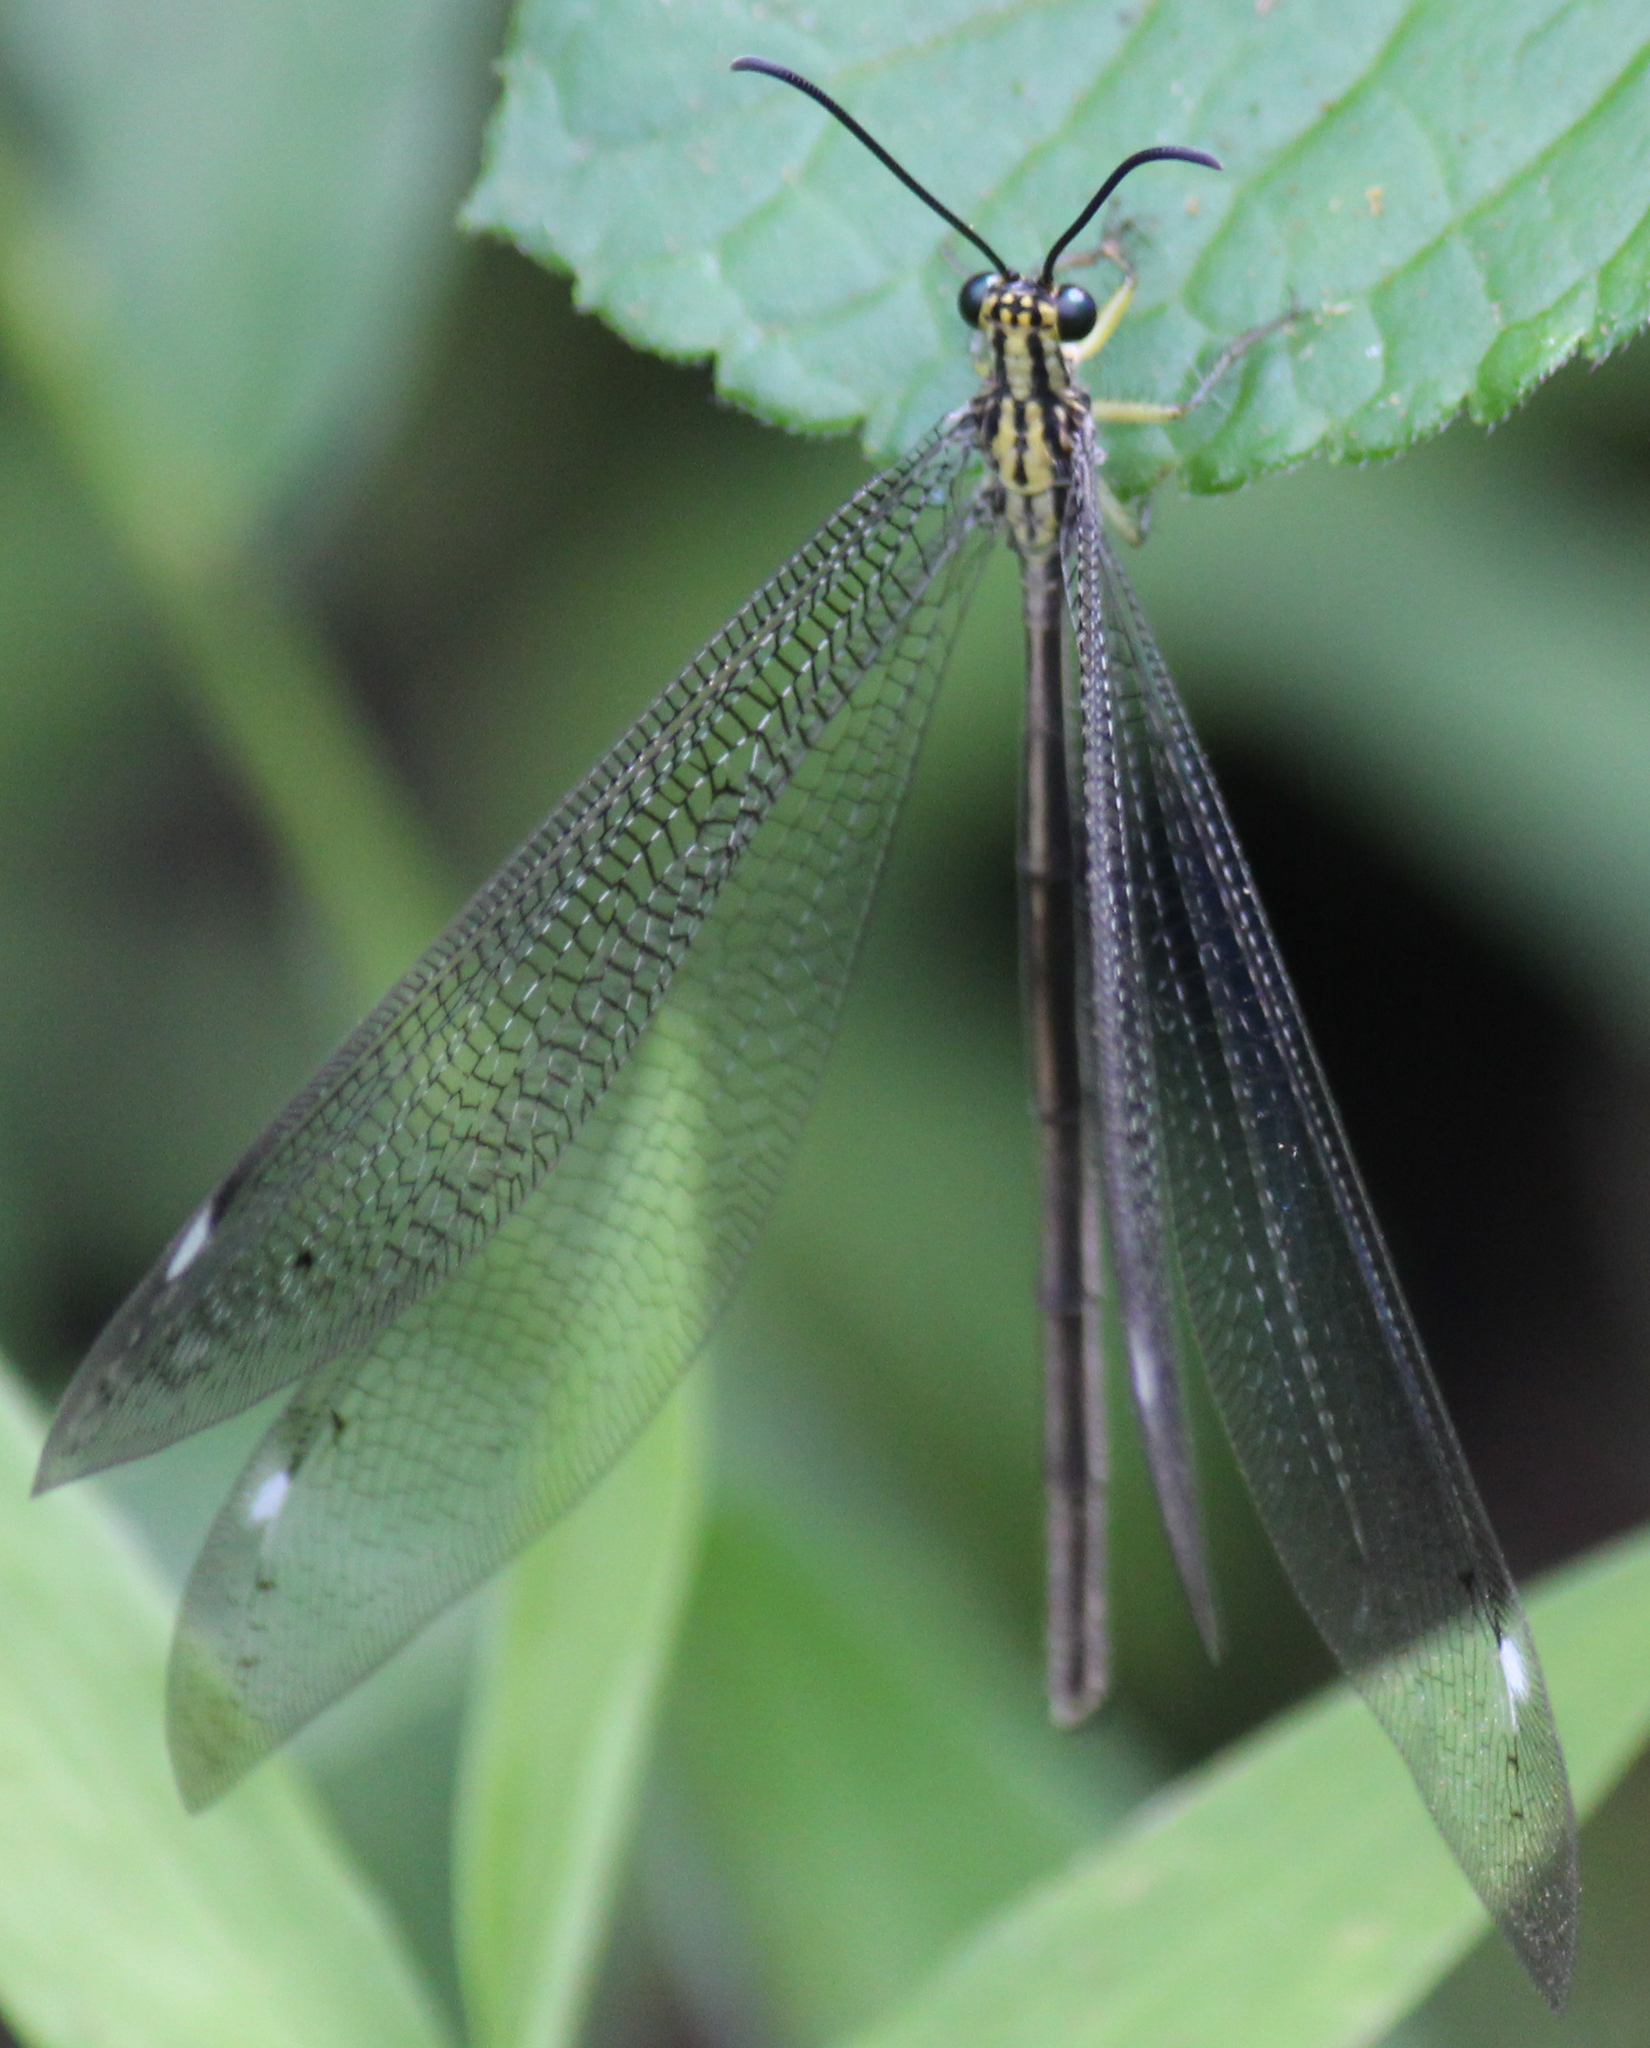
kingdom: Animalia
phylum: Arthropoda
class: Insecta
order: Neuroptera
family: Myrmeleontidae
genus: Banyutus
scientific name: Banyutus lethalis
